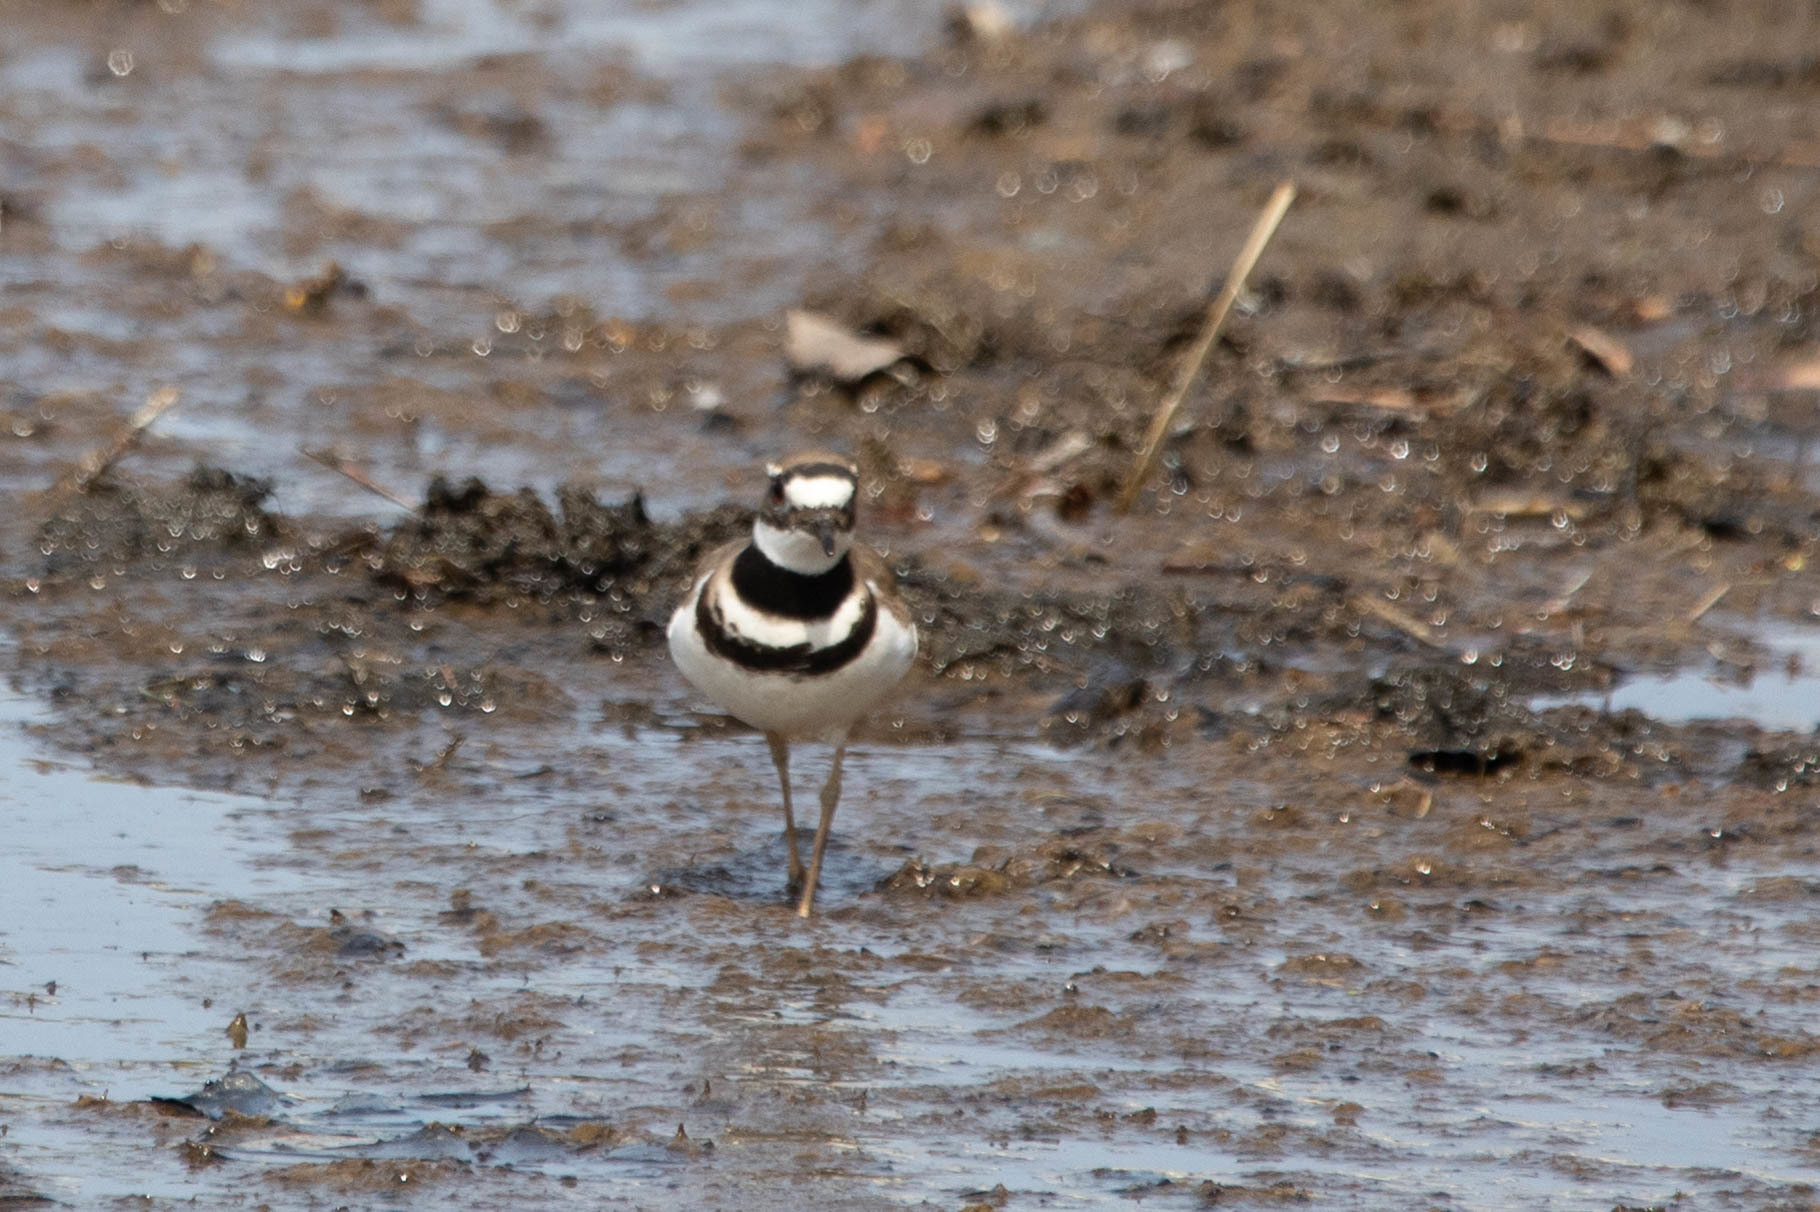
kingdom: Animalia
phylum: Chordata
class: Aves
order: Charadriiformes
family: Charadriidae
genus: Charadrius
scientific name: Charadrius vociferus
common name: Killdeer
